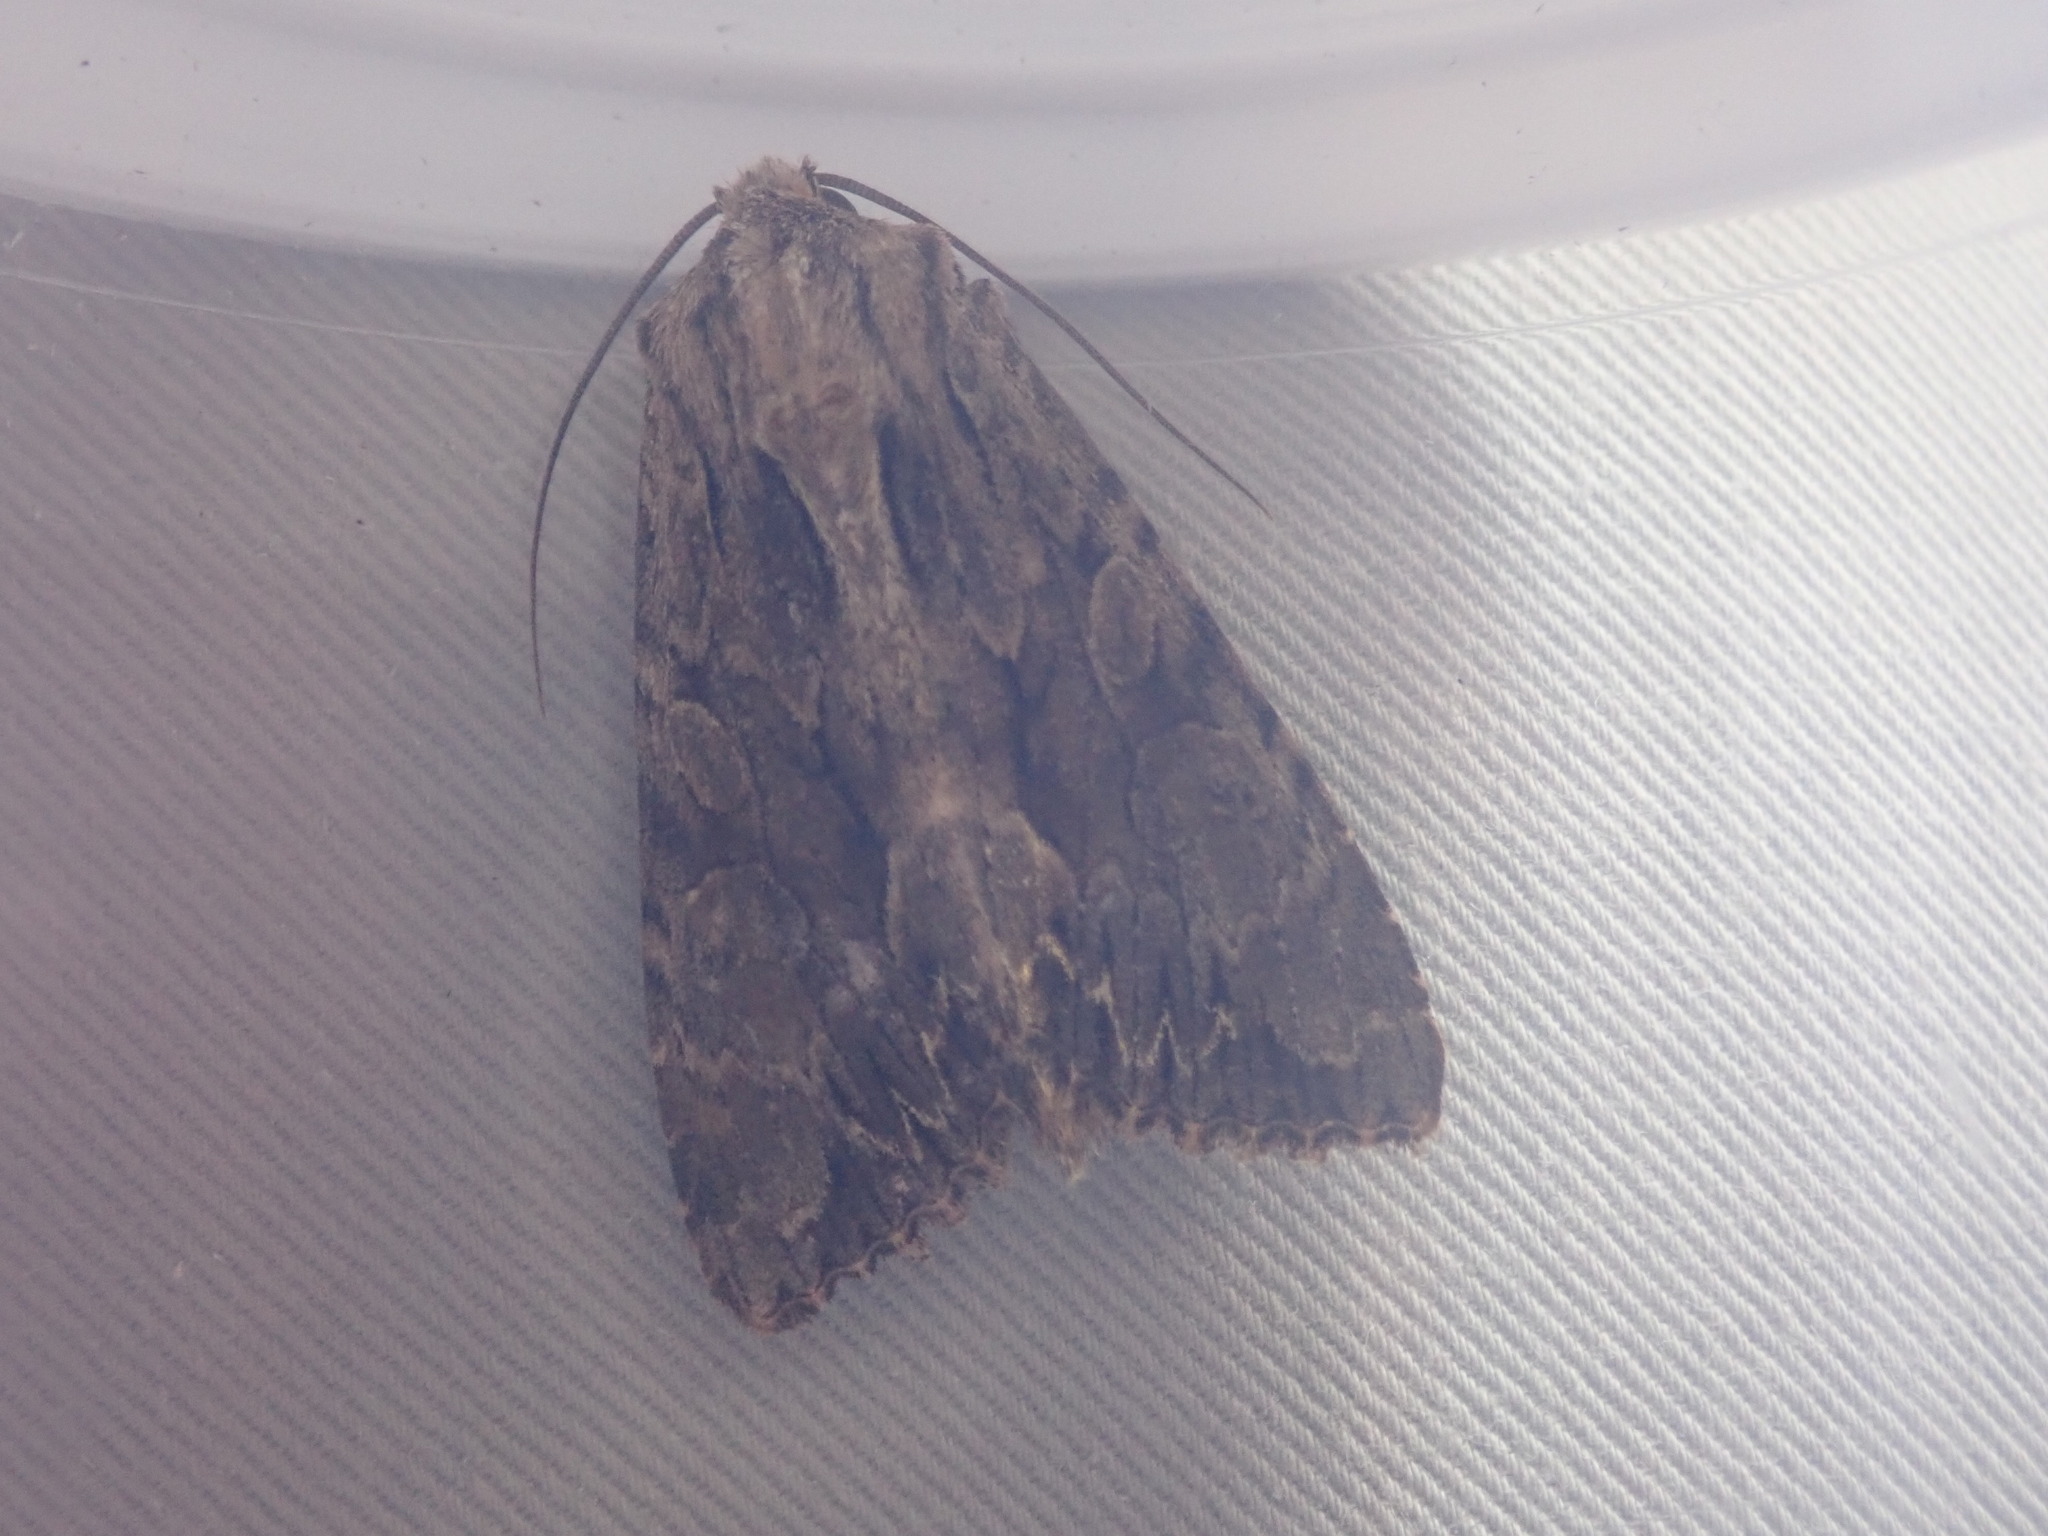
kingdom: Animalia
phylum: Arthropoda
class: Insecta
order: Lepidoptera
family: Noctuidae
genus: Apamea
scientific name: Apamea monoglypha
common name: Dark arches
